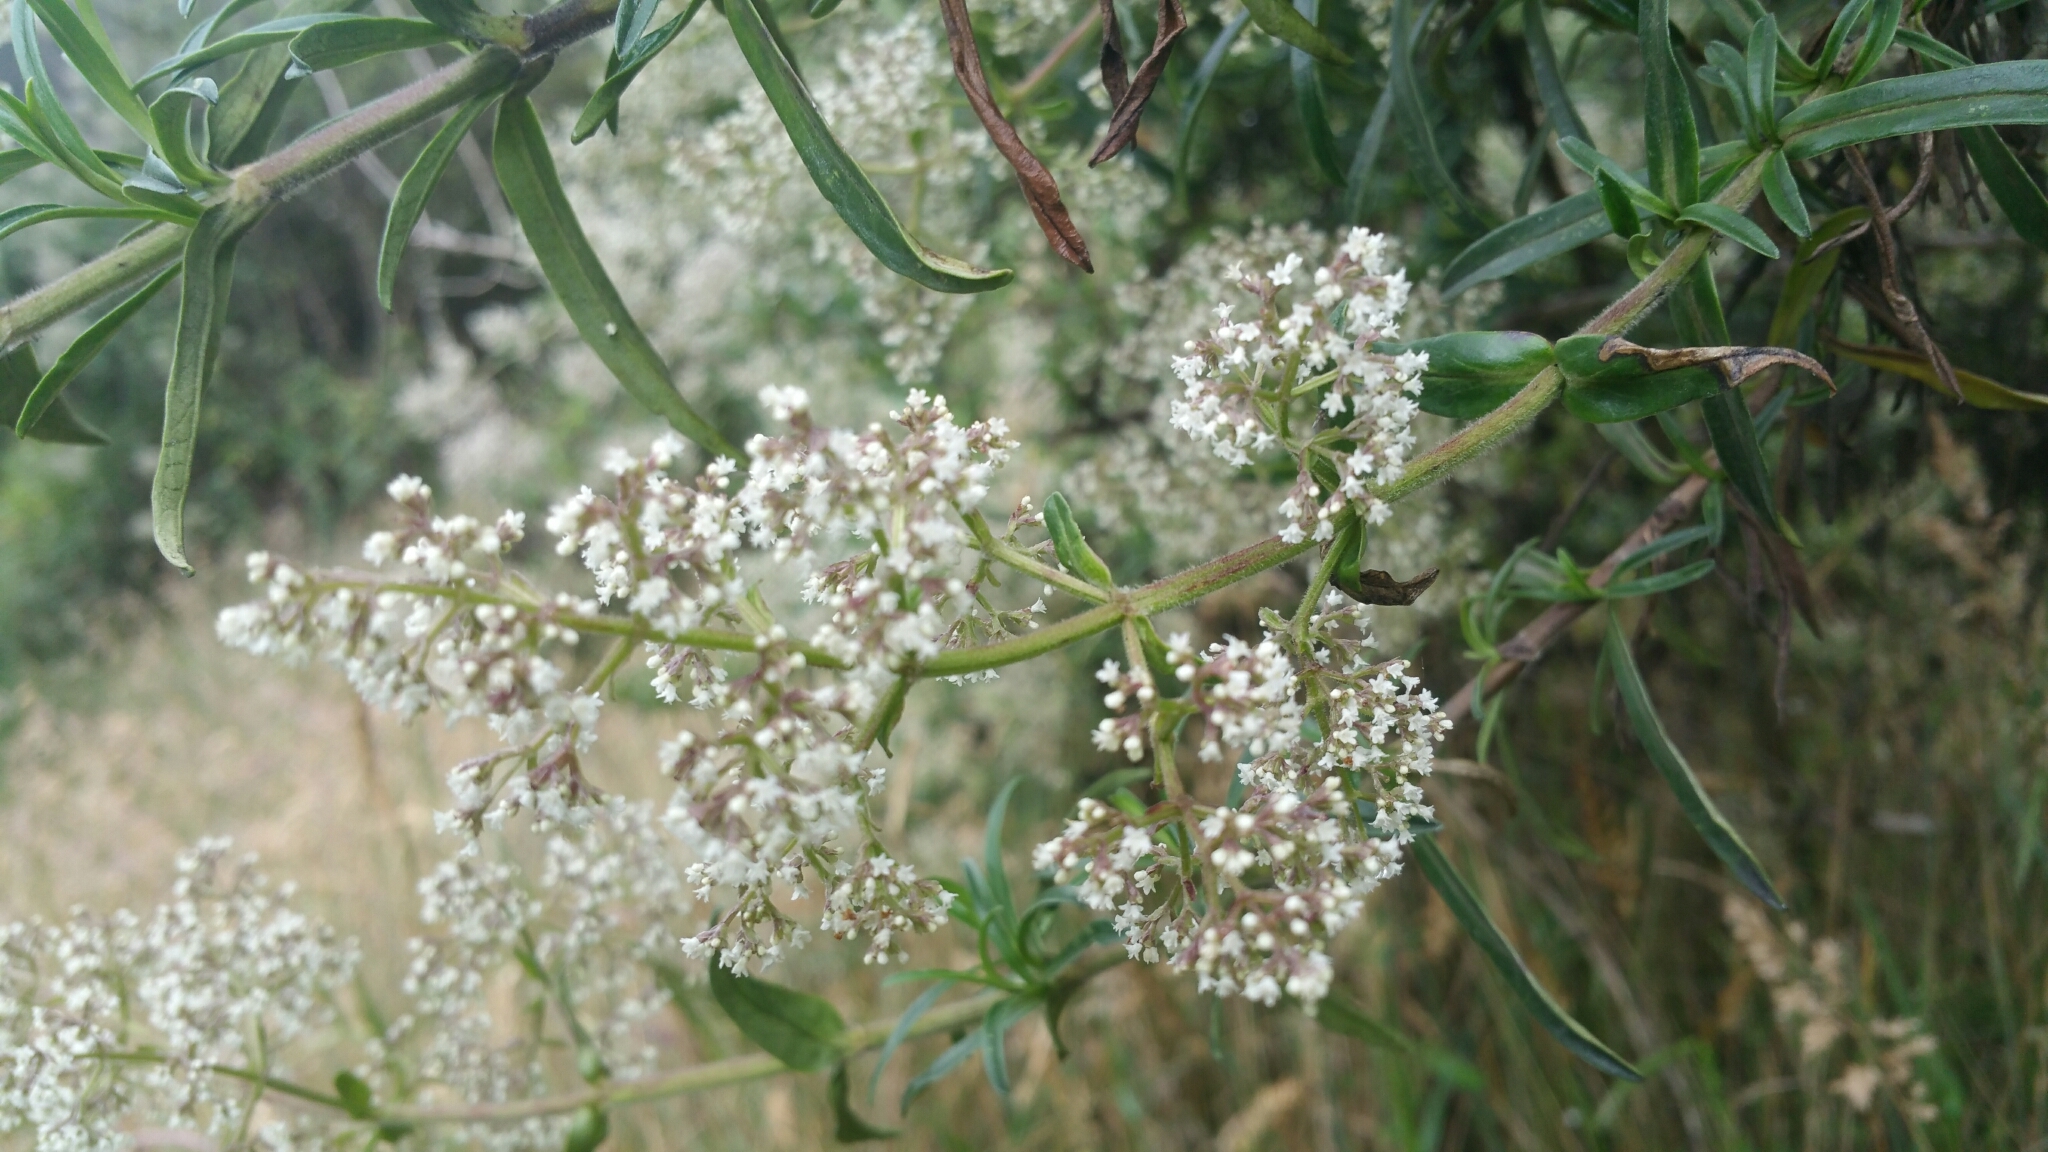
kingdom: Plantae
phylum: Tracheophyta
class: Magnoliopsida
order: Dipsacales
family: Caprifoliaceae
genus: Valeriana
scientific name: Valeriana hirtella
